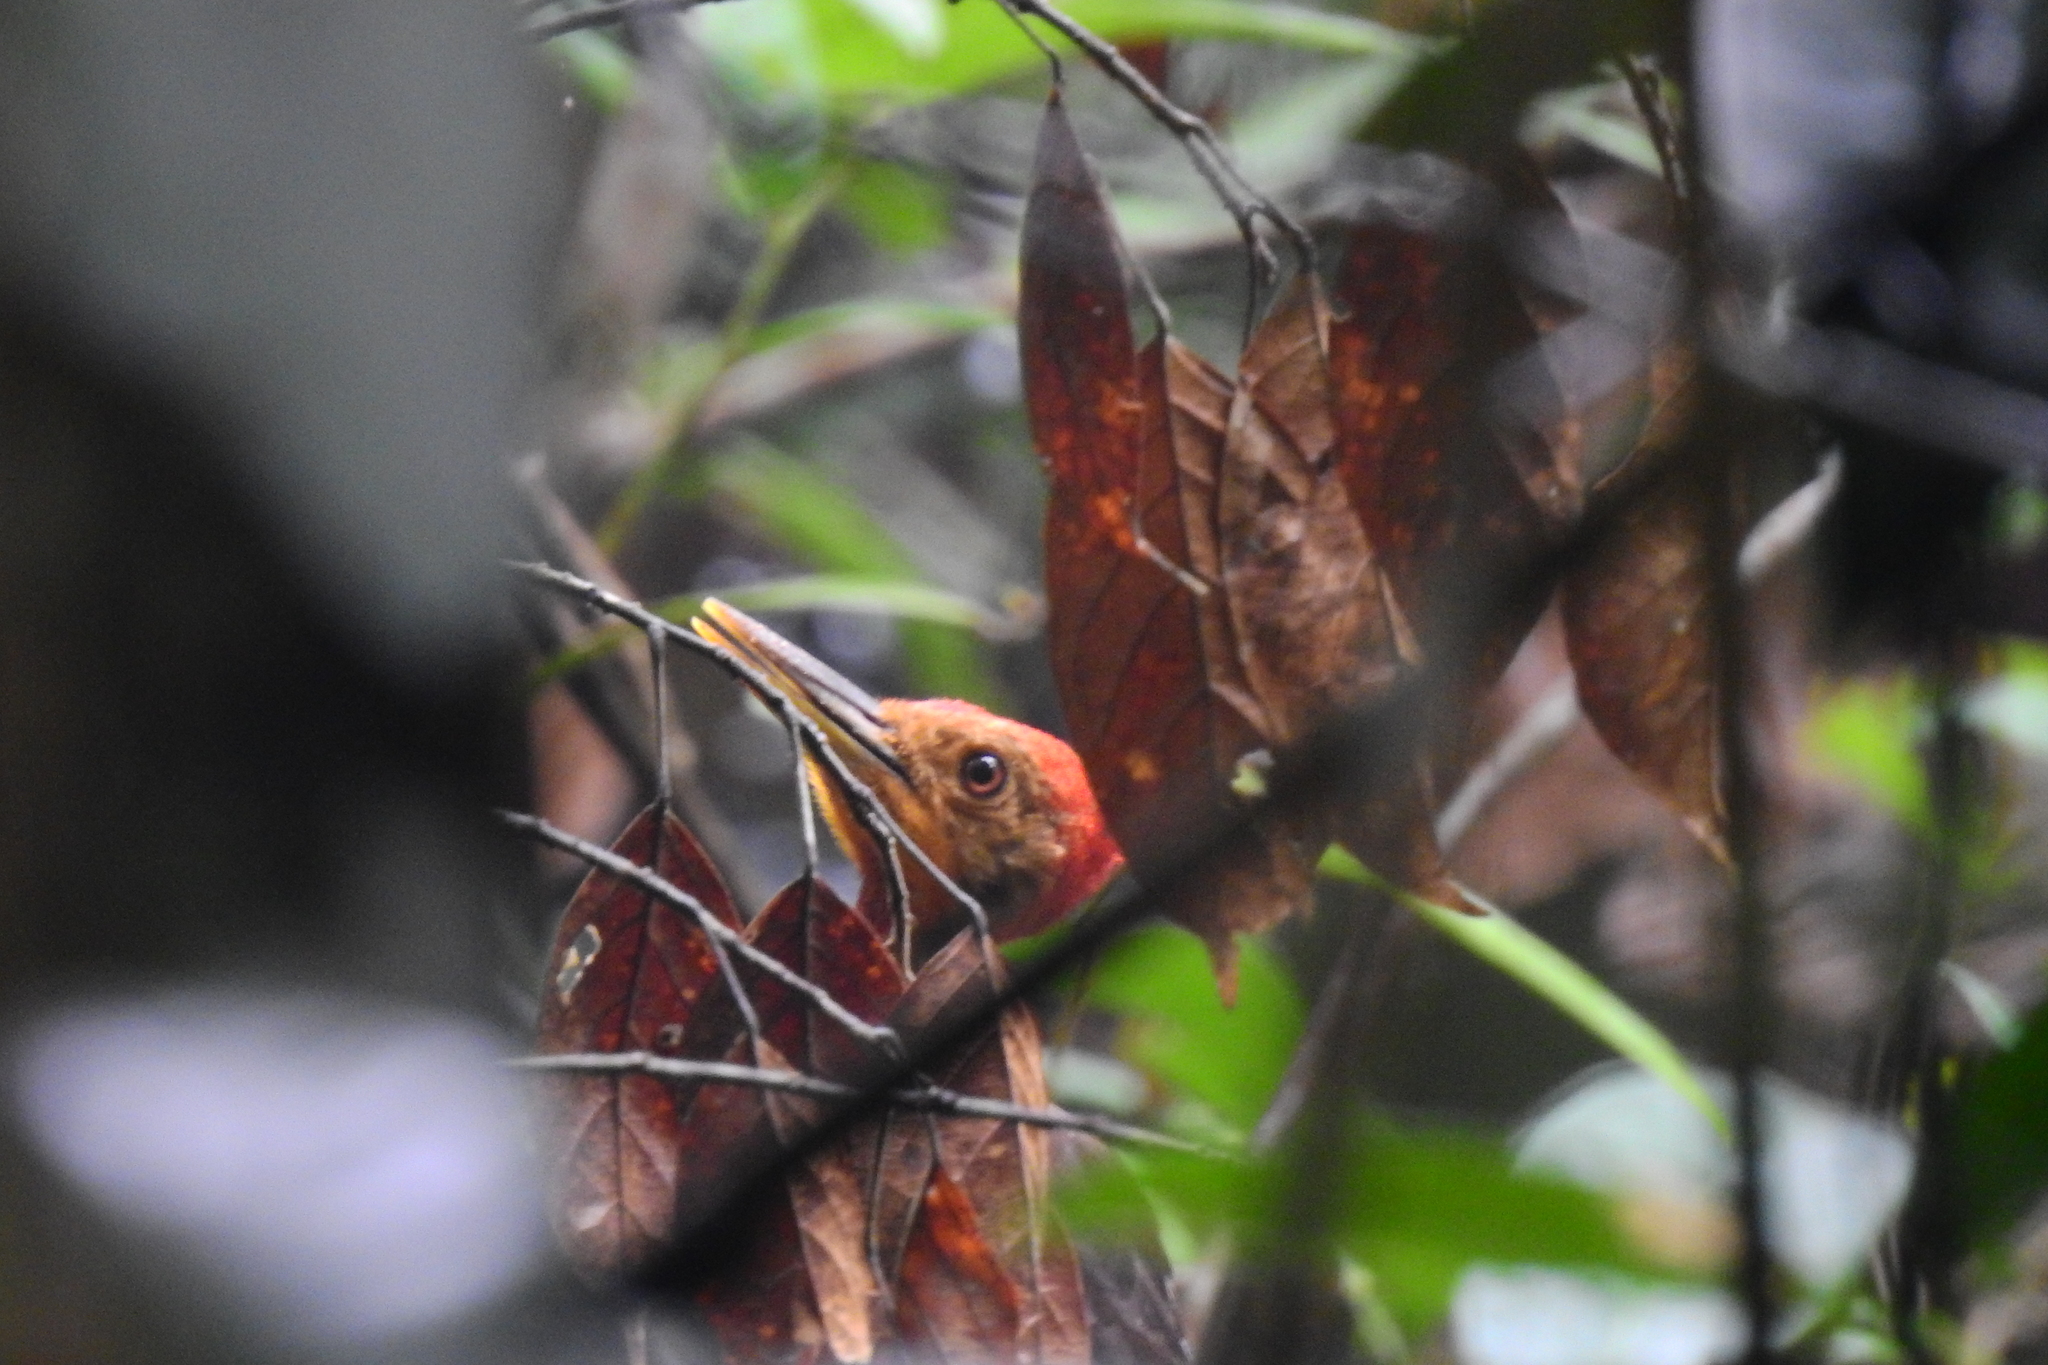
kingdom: Animalia
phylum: Chordata
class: Aves
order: Piciformes
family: Picidae
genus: Reinwardtipicus
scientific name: Reinwardtipicus validus
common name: Orange-backed woodpecker
